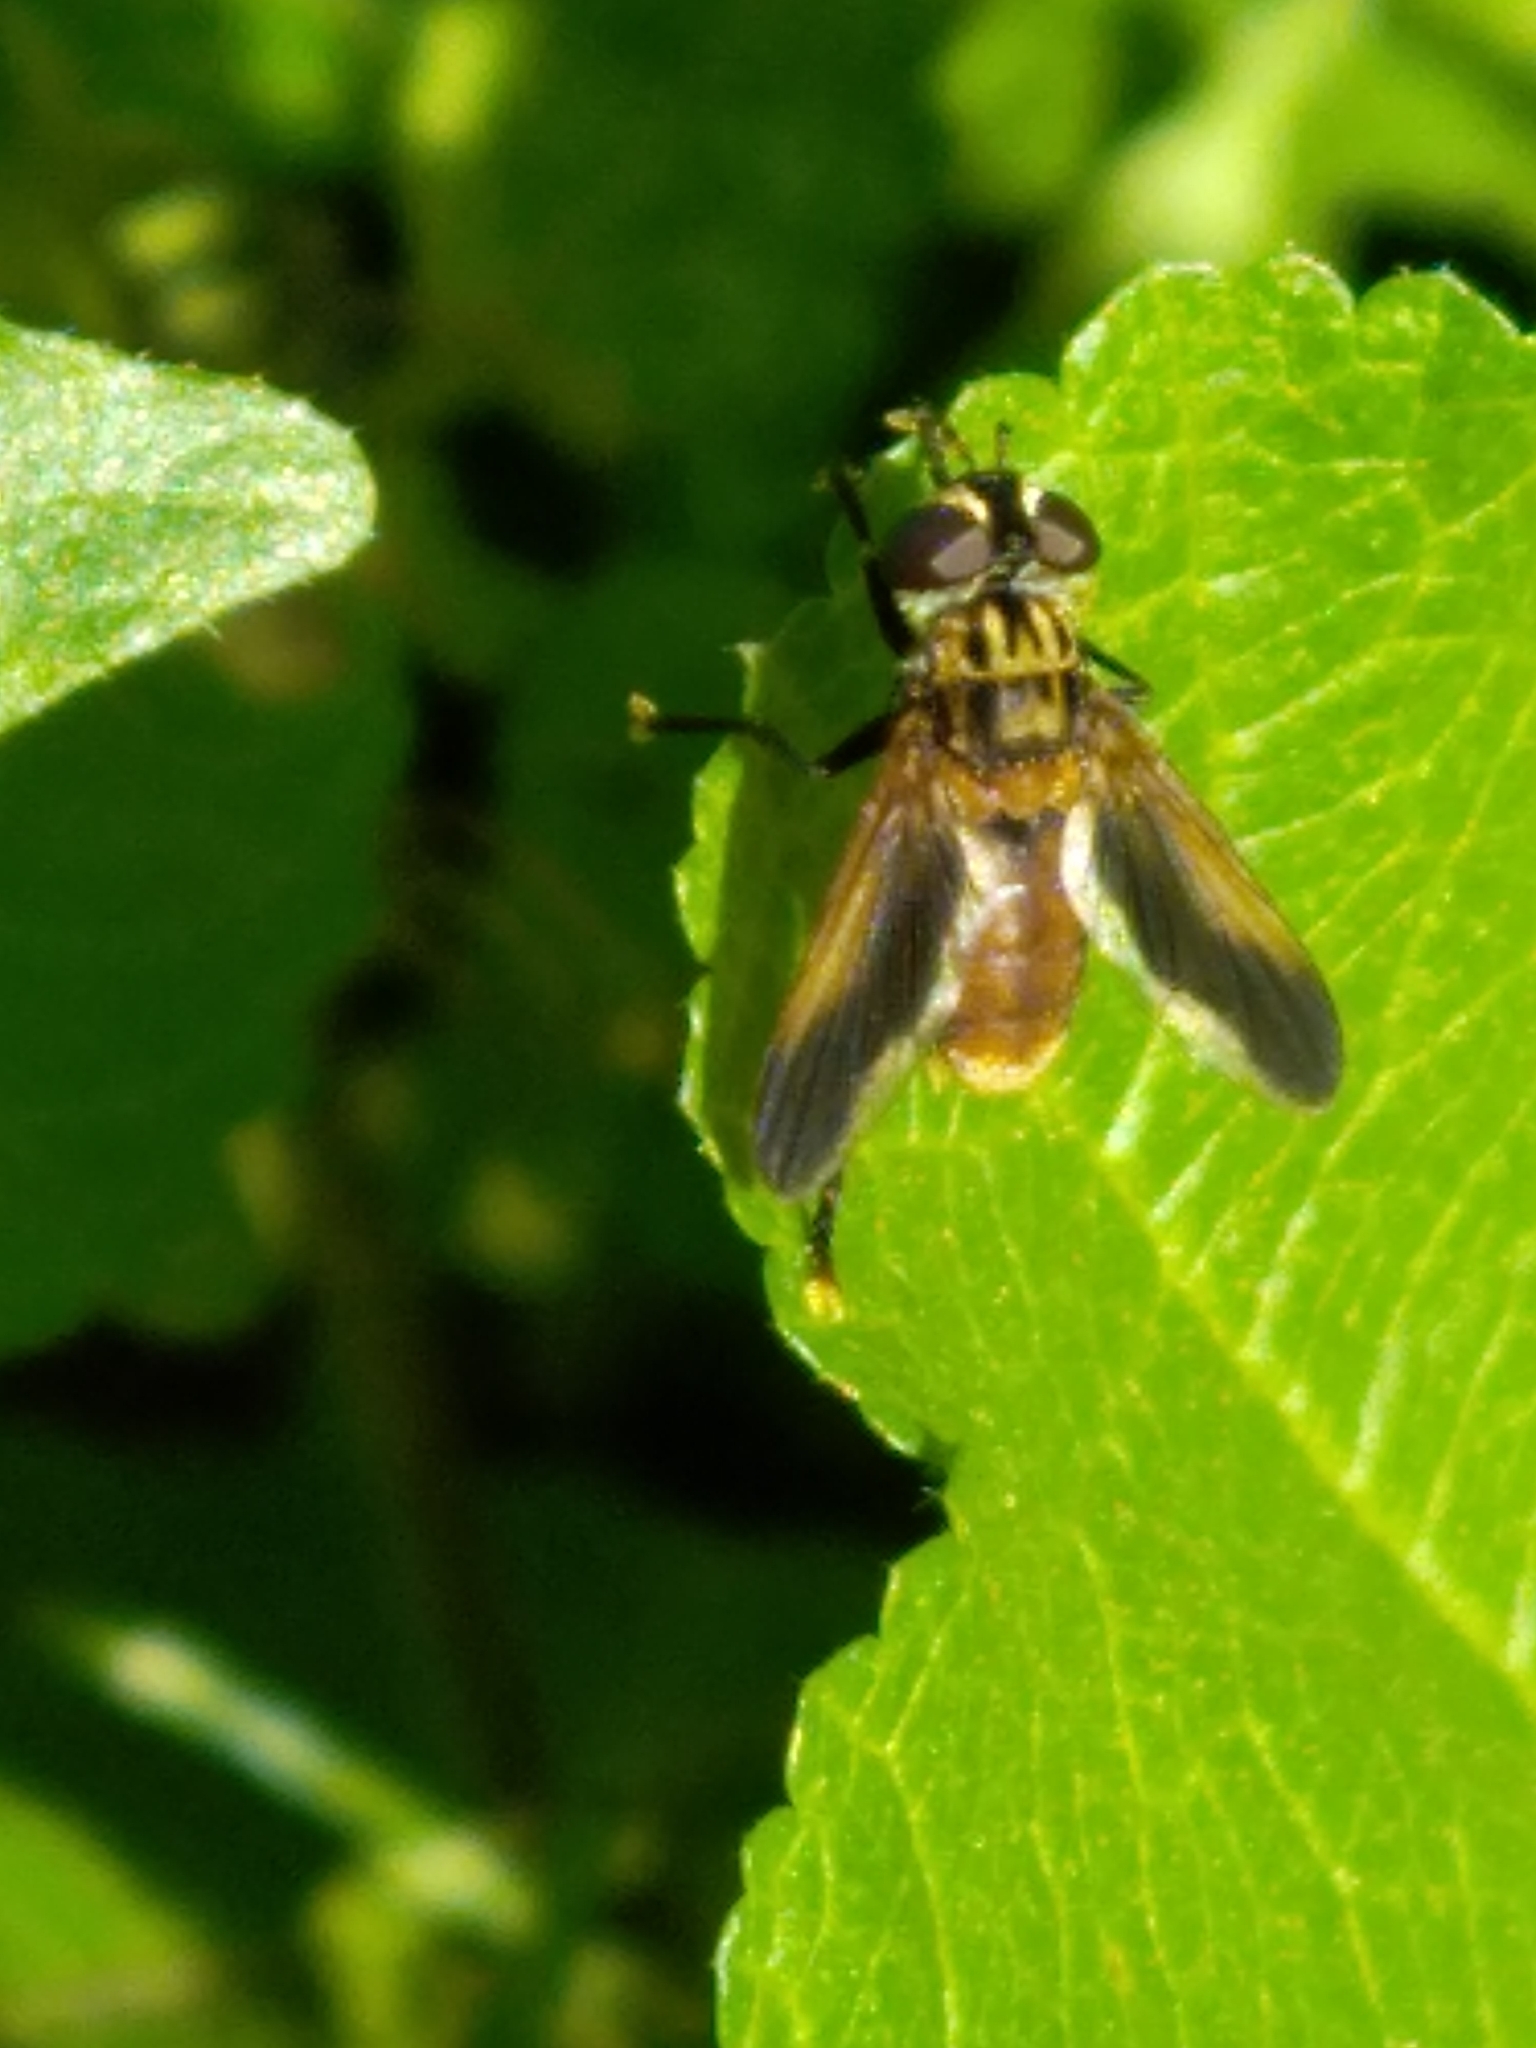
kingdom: Animalia
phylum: Arthropoda
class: Insecta
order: Diptera
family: Tachinidae
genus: Trichopoda
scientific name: Trichopoda pictipennis
